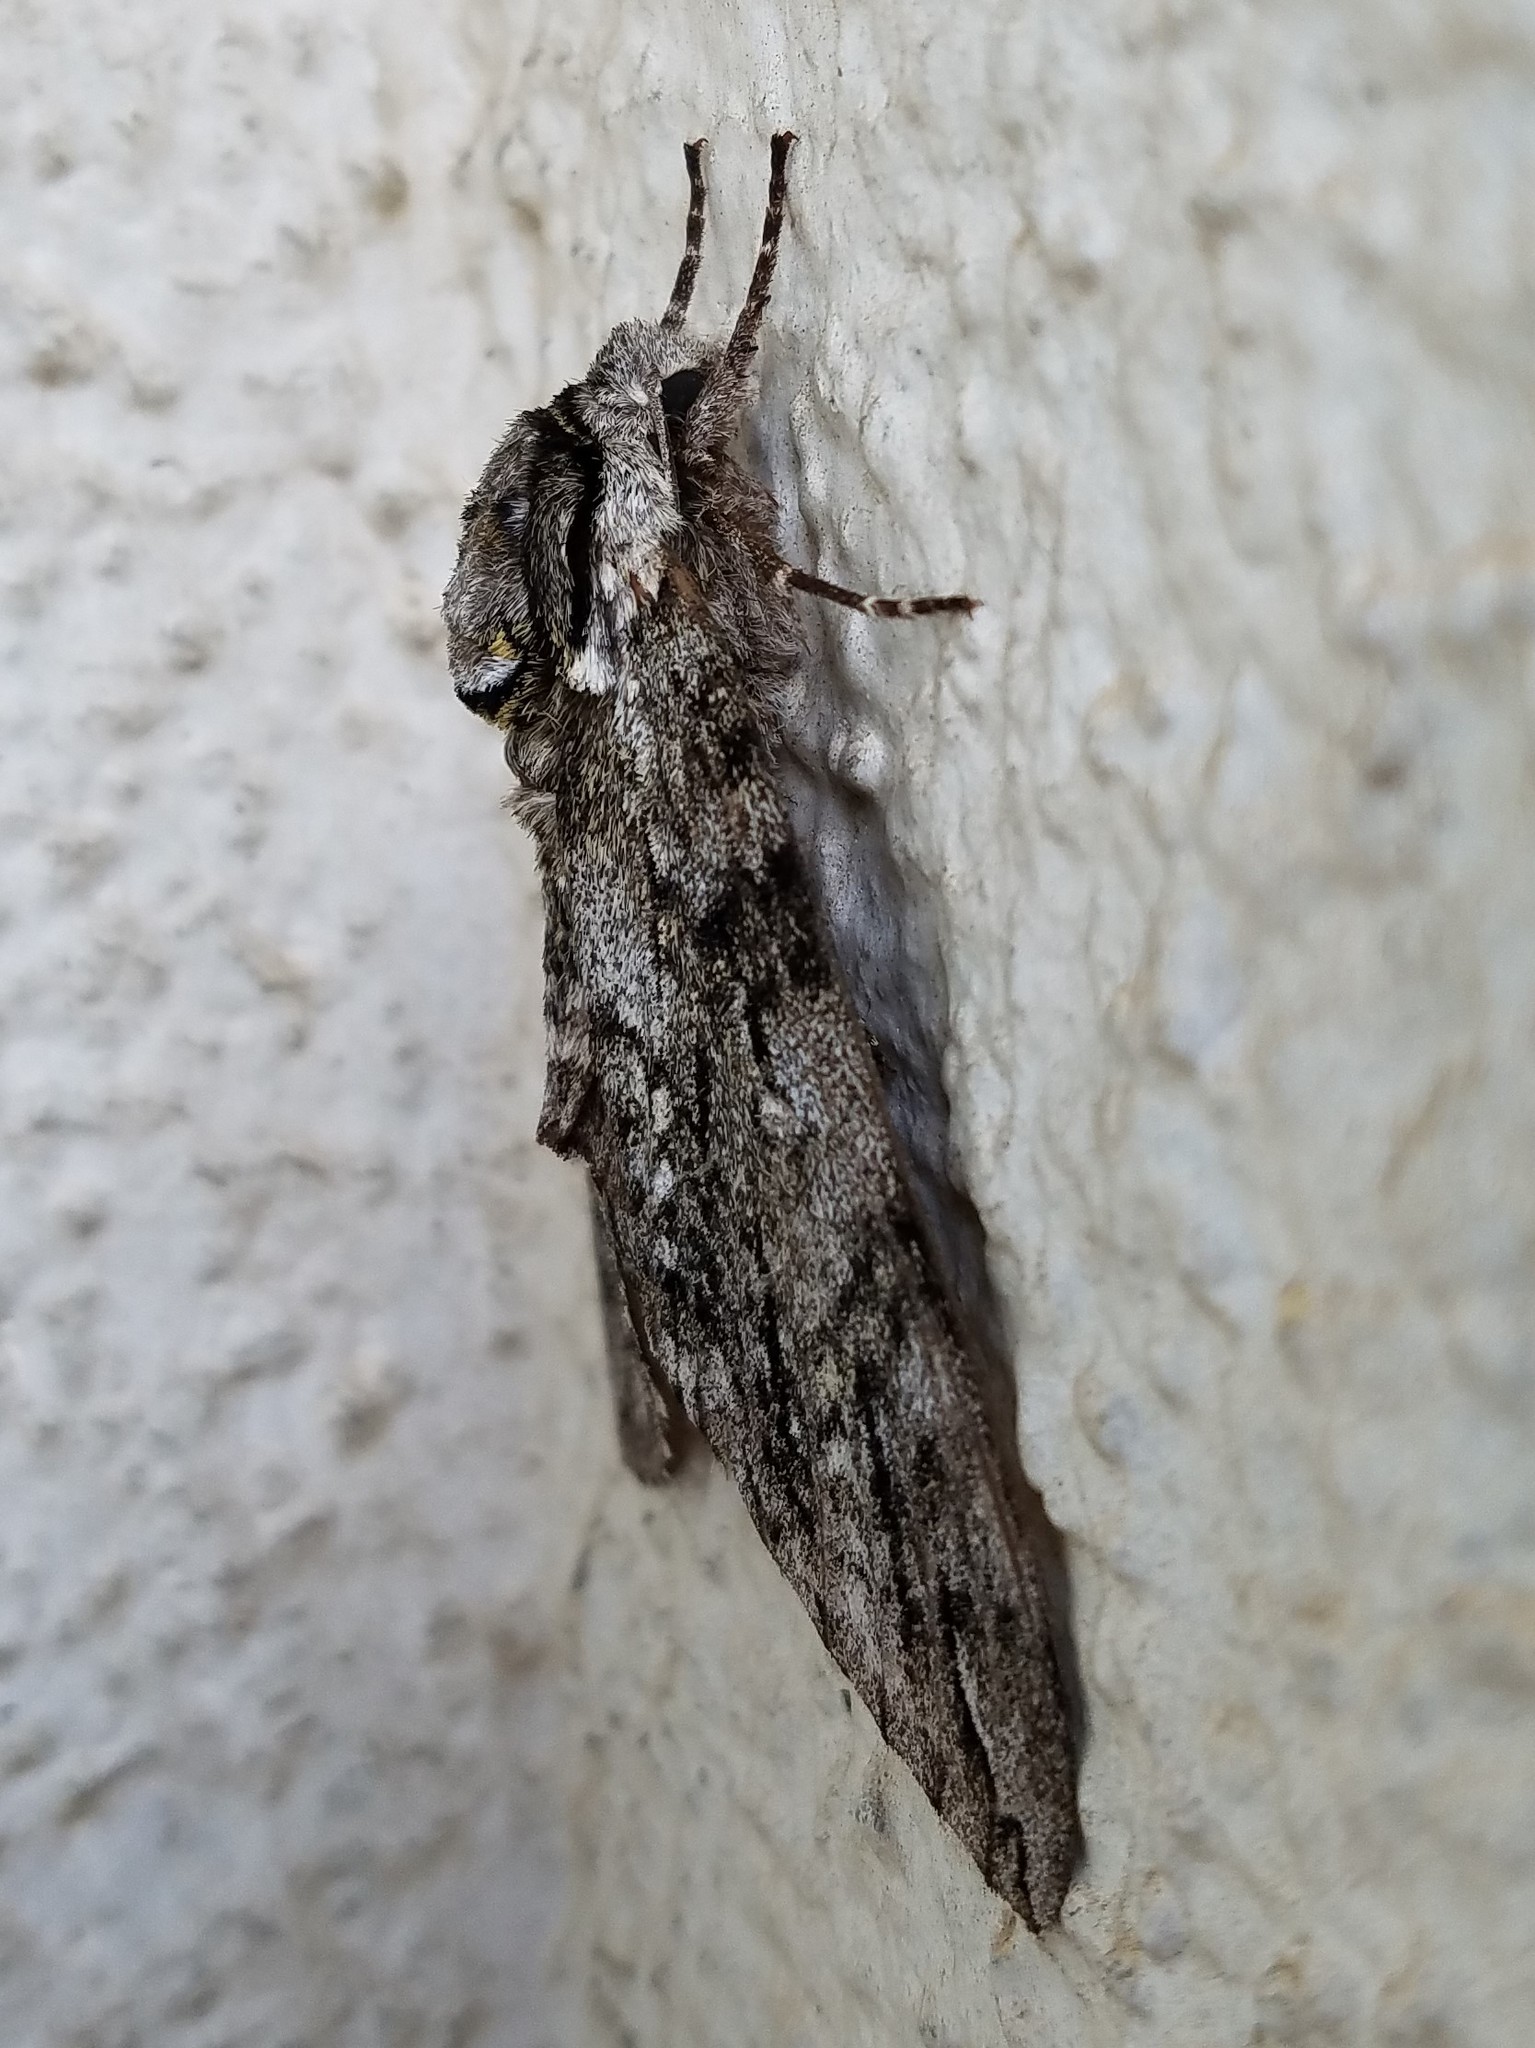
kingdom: Animalia
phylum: Arthropoda
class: Insecta
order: Lepidoptera
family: Sphingidae
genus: Ceratomia
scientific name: Ceratomia undulosa
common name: Waved sphinx
